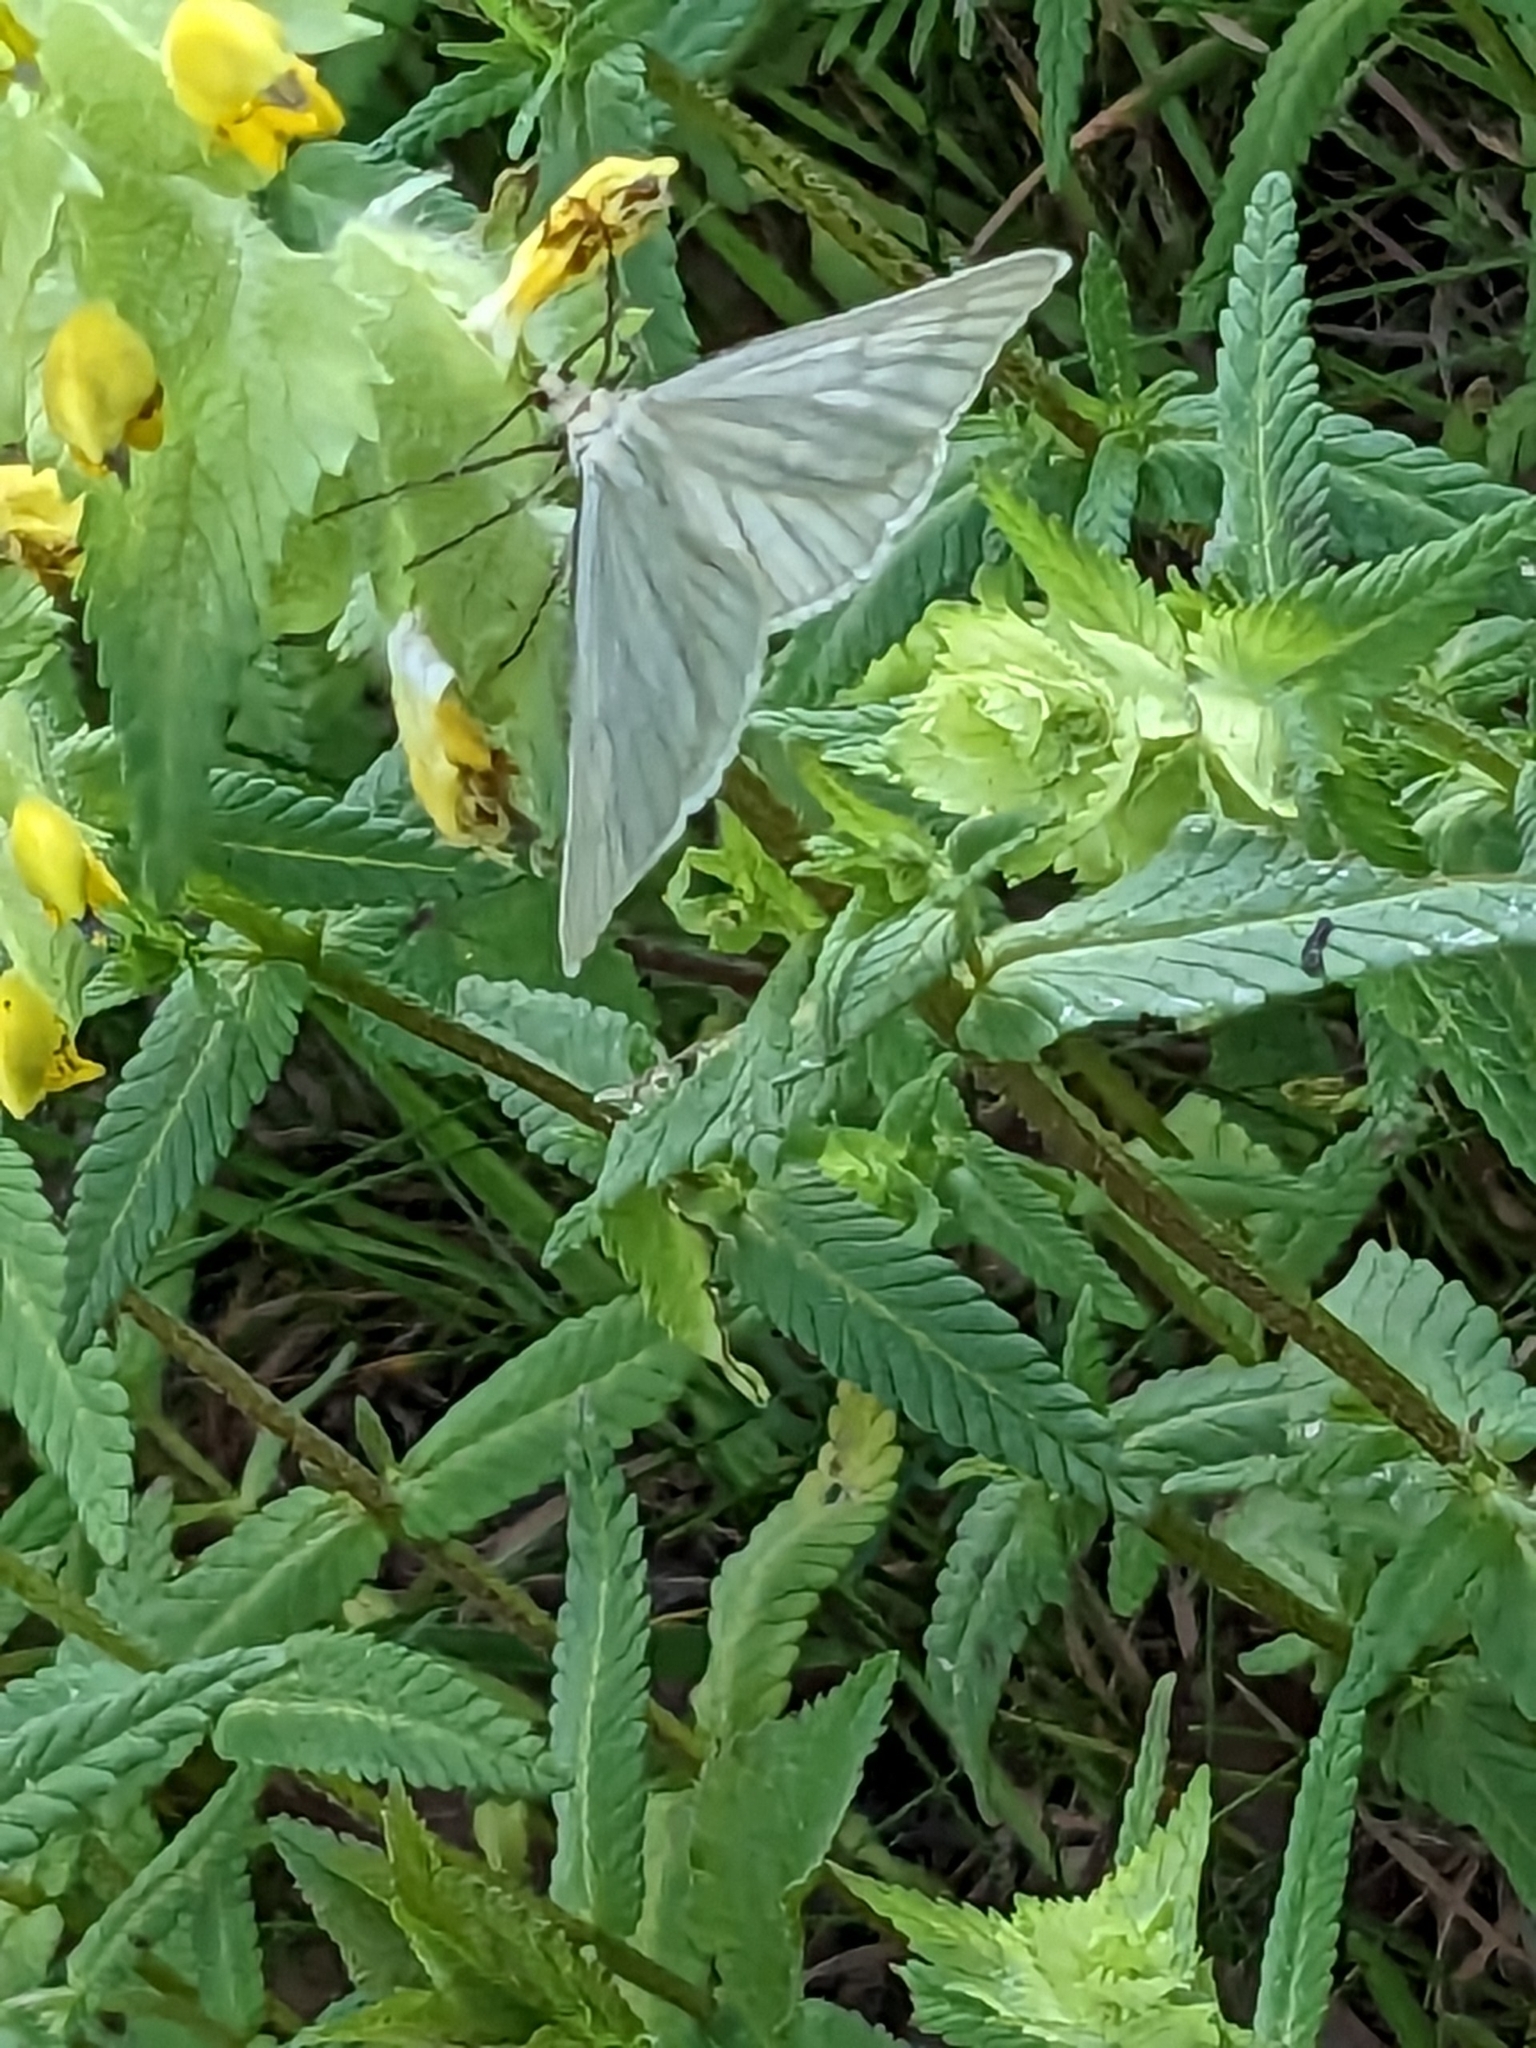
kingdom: Animalia
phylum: Arthropoda
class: Insecta
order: Lepidoptera
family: Geometridae
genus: Siona
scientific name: Siona lineata
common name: Black-veined moth
